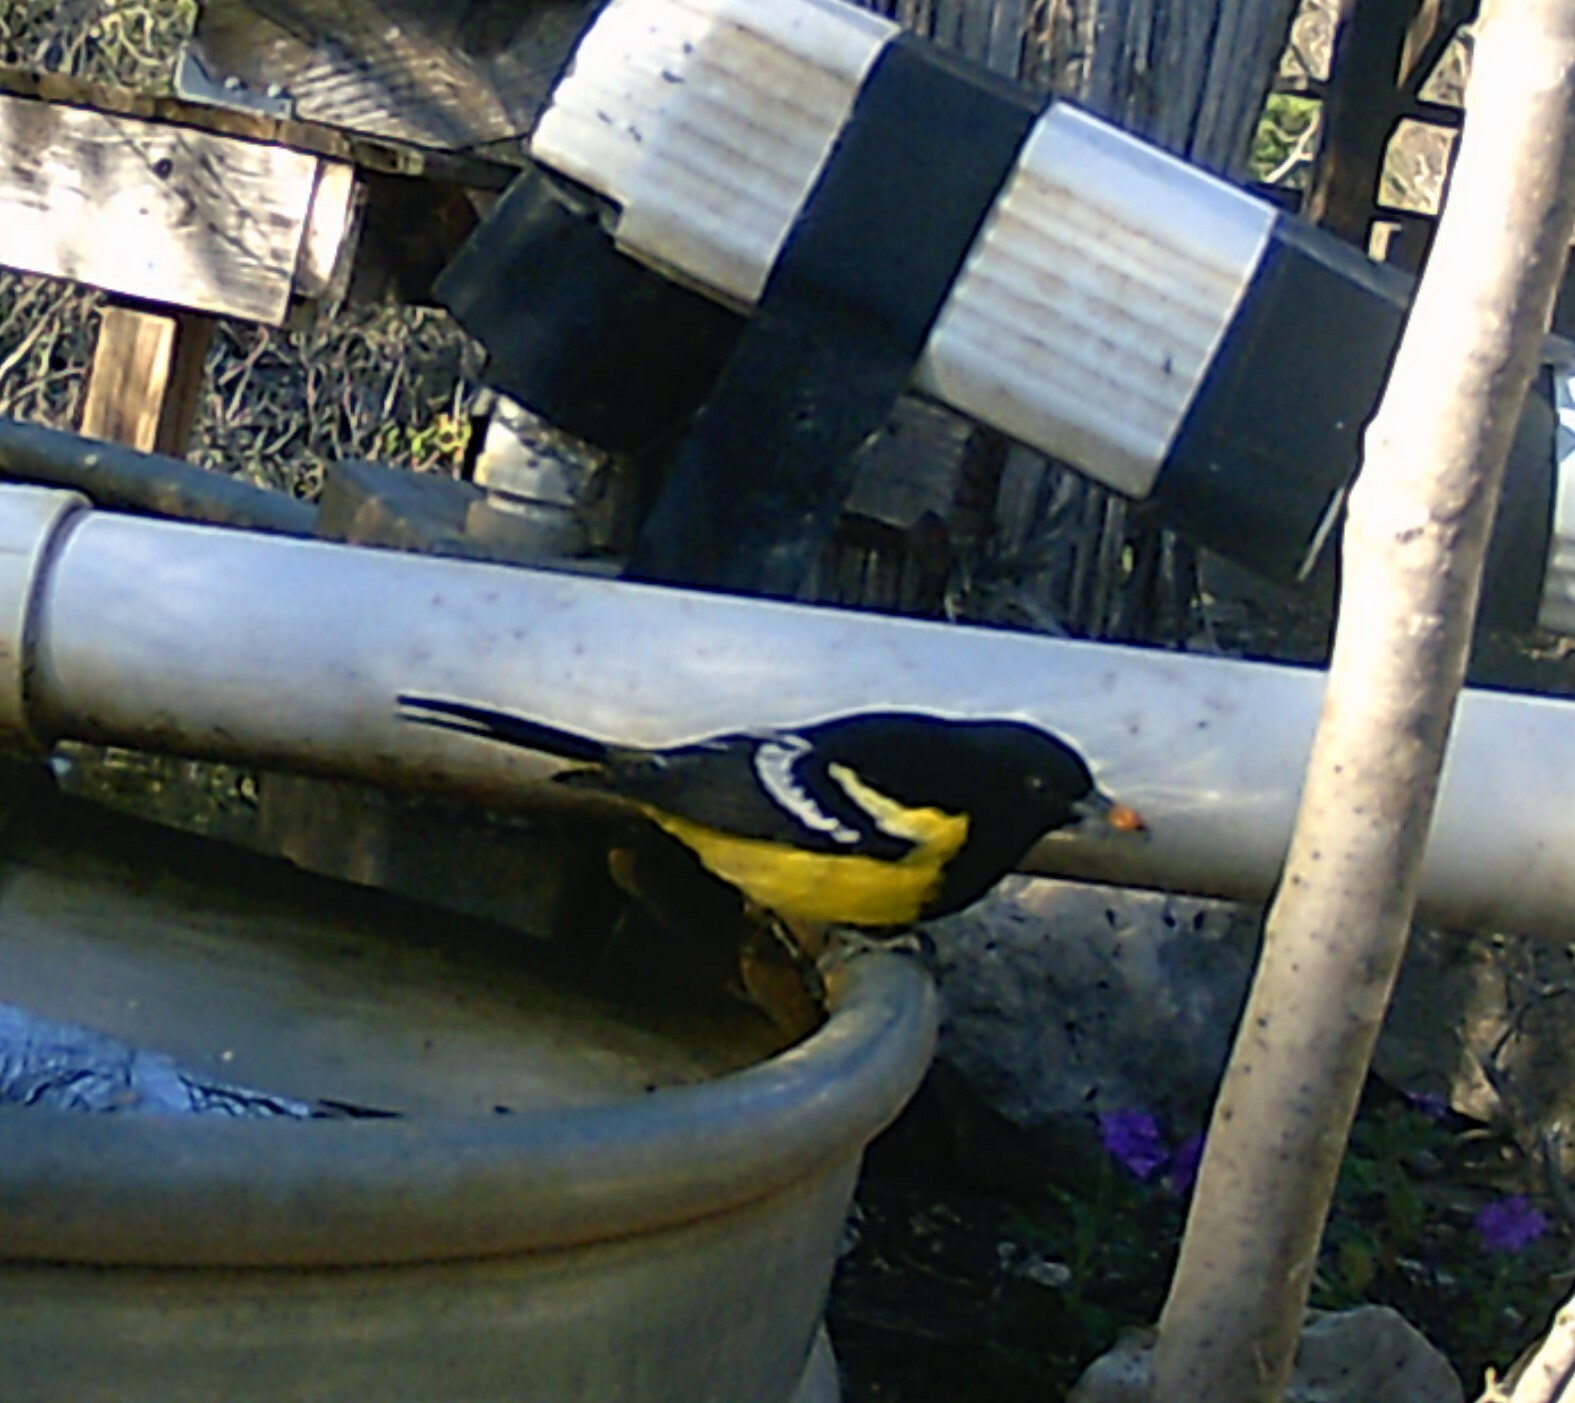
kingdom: Animalia
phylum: Chordata
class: Aves
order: Passeriformes
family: Icteridae
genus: Icterus
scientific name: Icterus parisorum
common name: Scott's oriole
